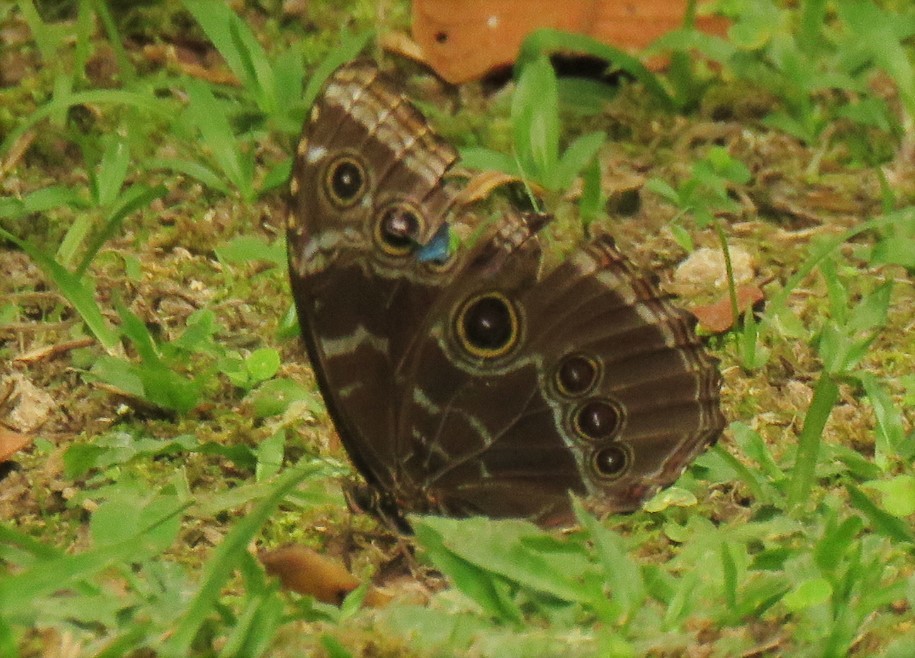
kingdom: Animalia
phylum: Arthropoda
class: Insecta
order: Lepidoptera
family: Nymphalidae
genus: Morpho
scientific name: Morpho helenor
